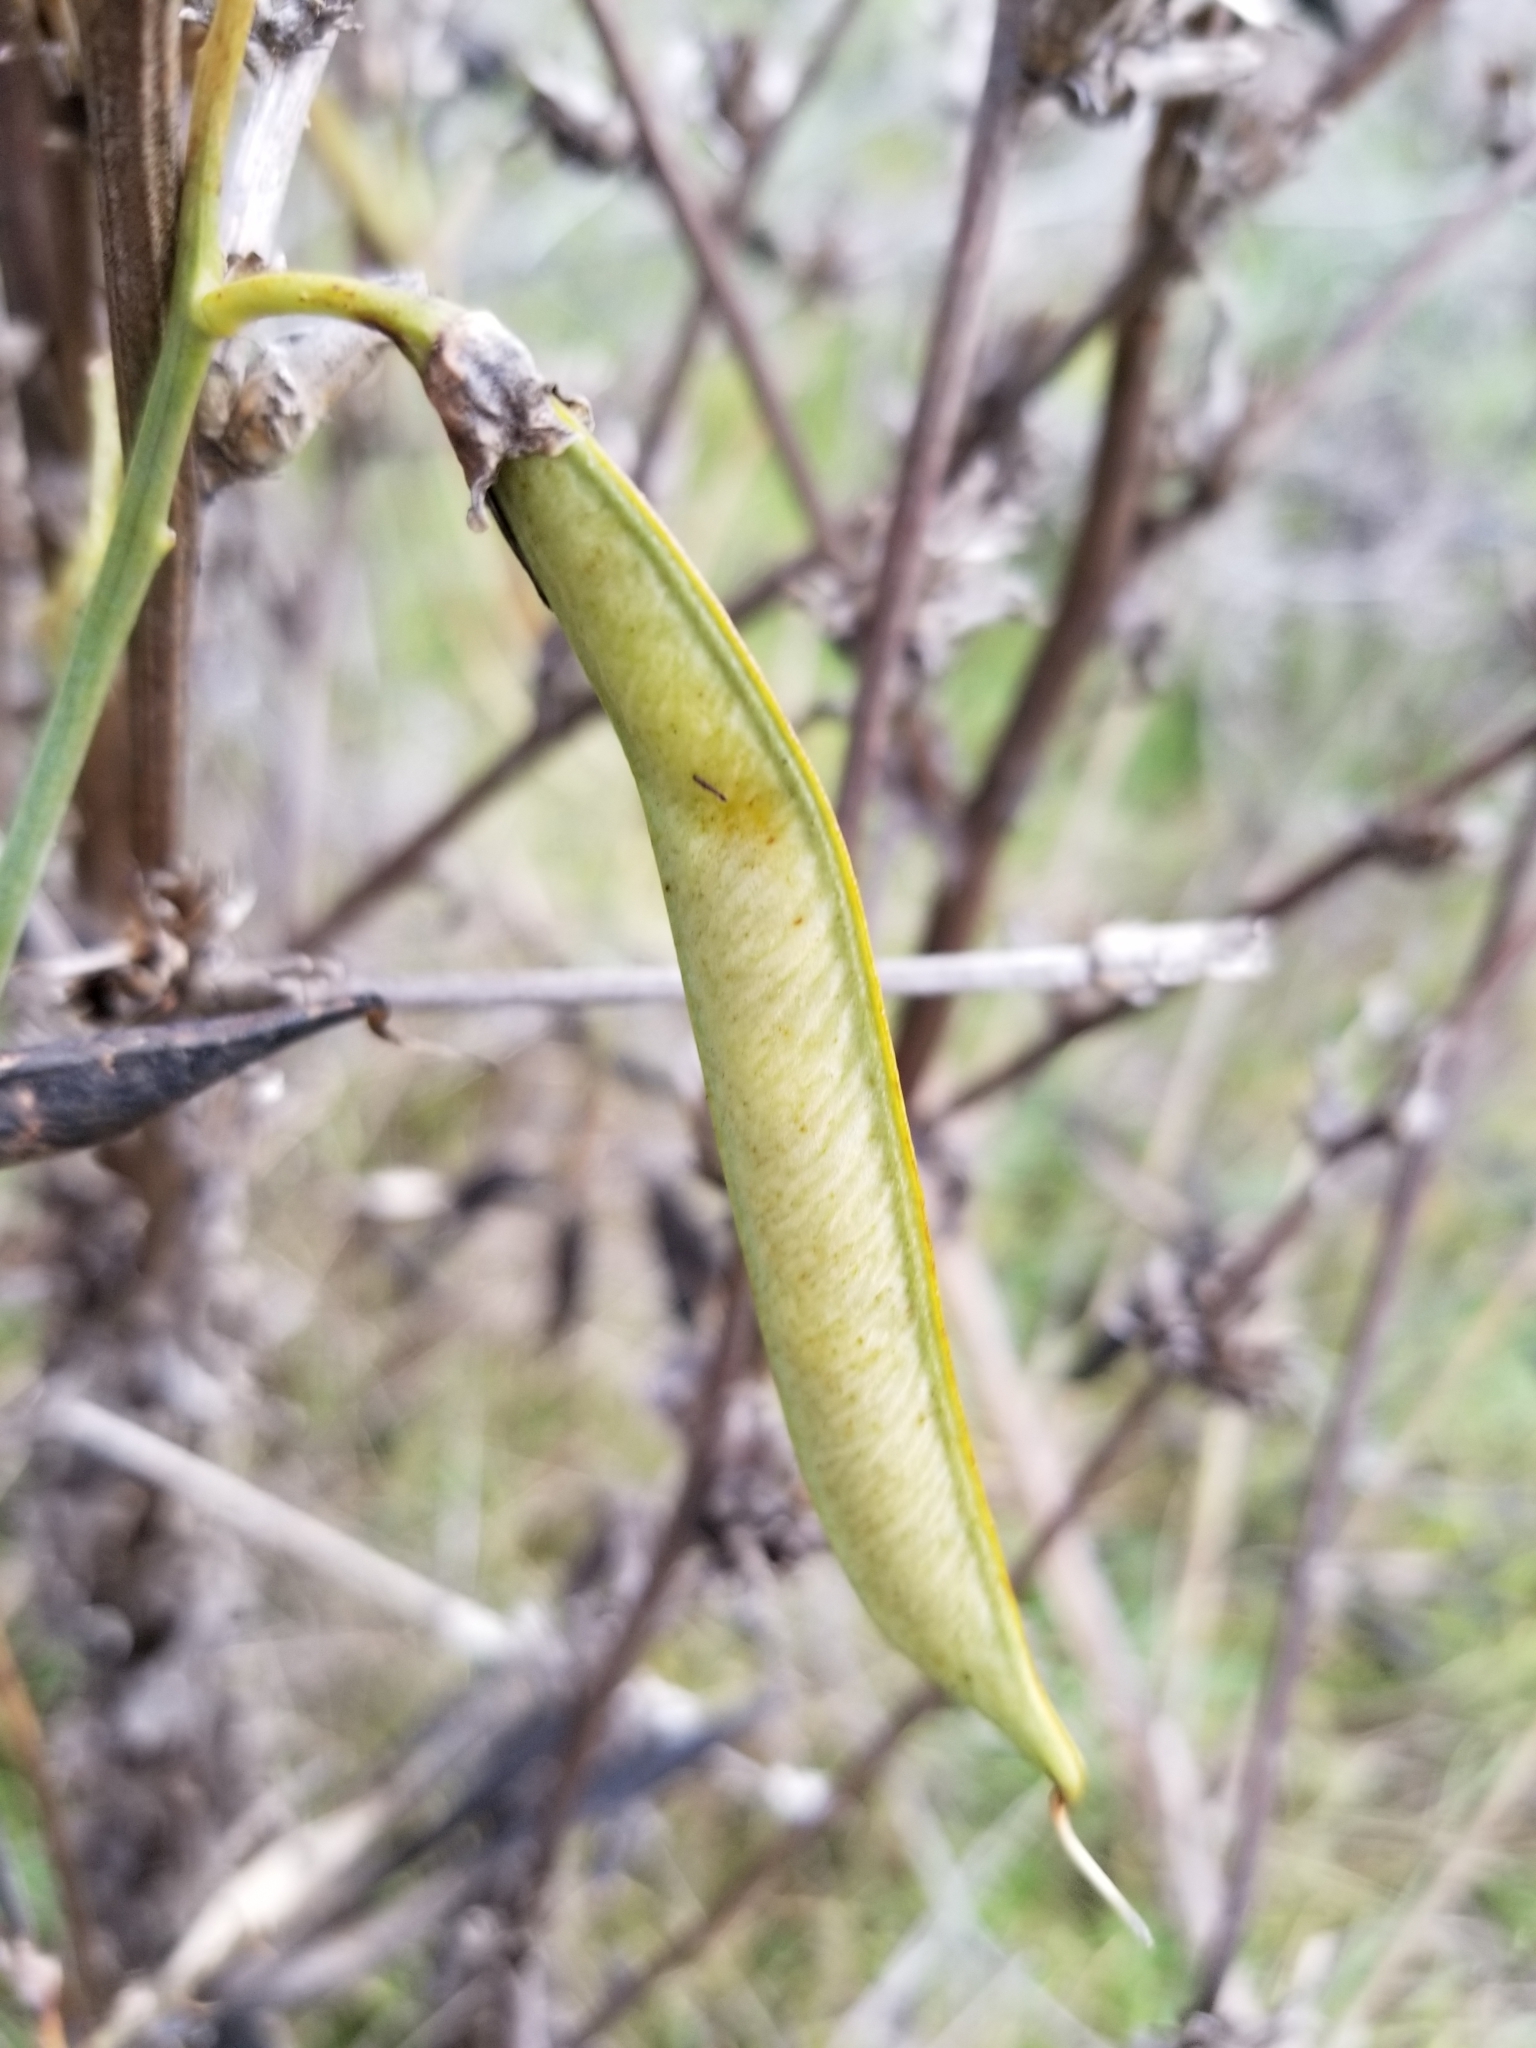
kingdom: Plantae
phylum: Tracheophyta
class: Magnoliopsida
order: Fabales
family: Fabaceae
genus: Lathyrus
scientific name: Lathyrus latifolius
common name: Perennial pea
